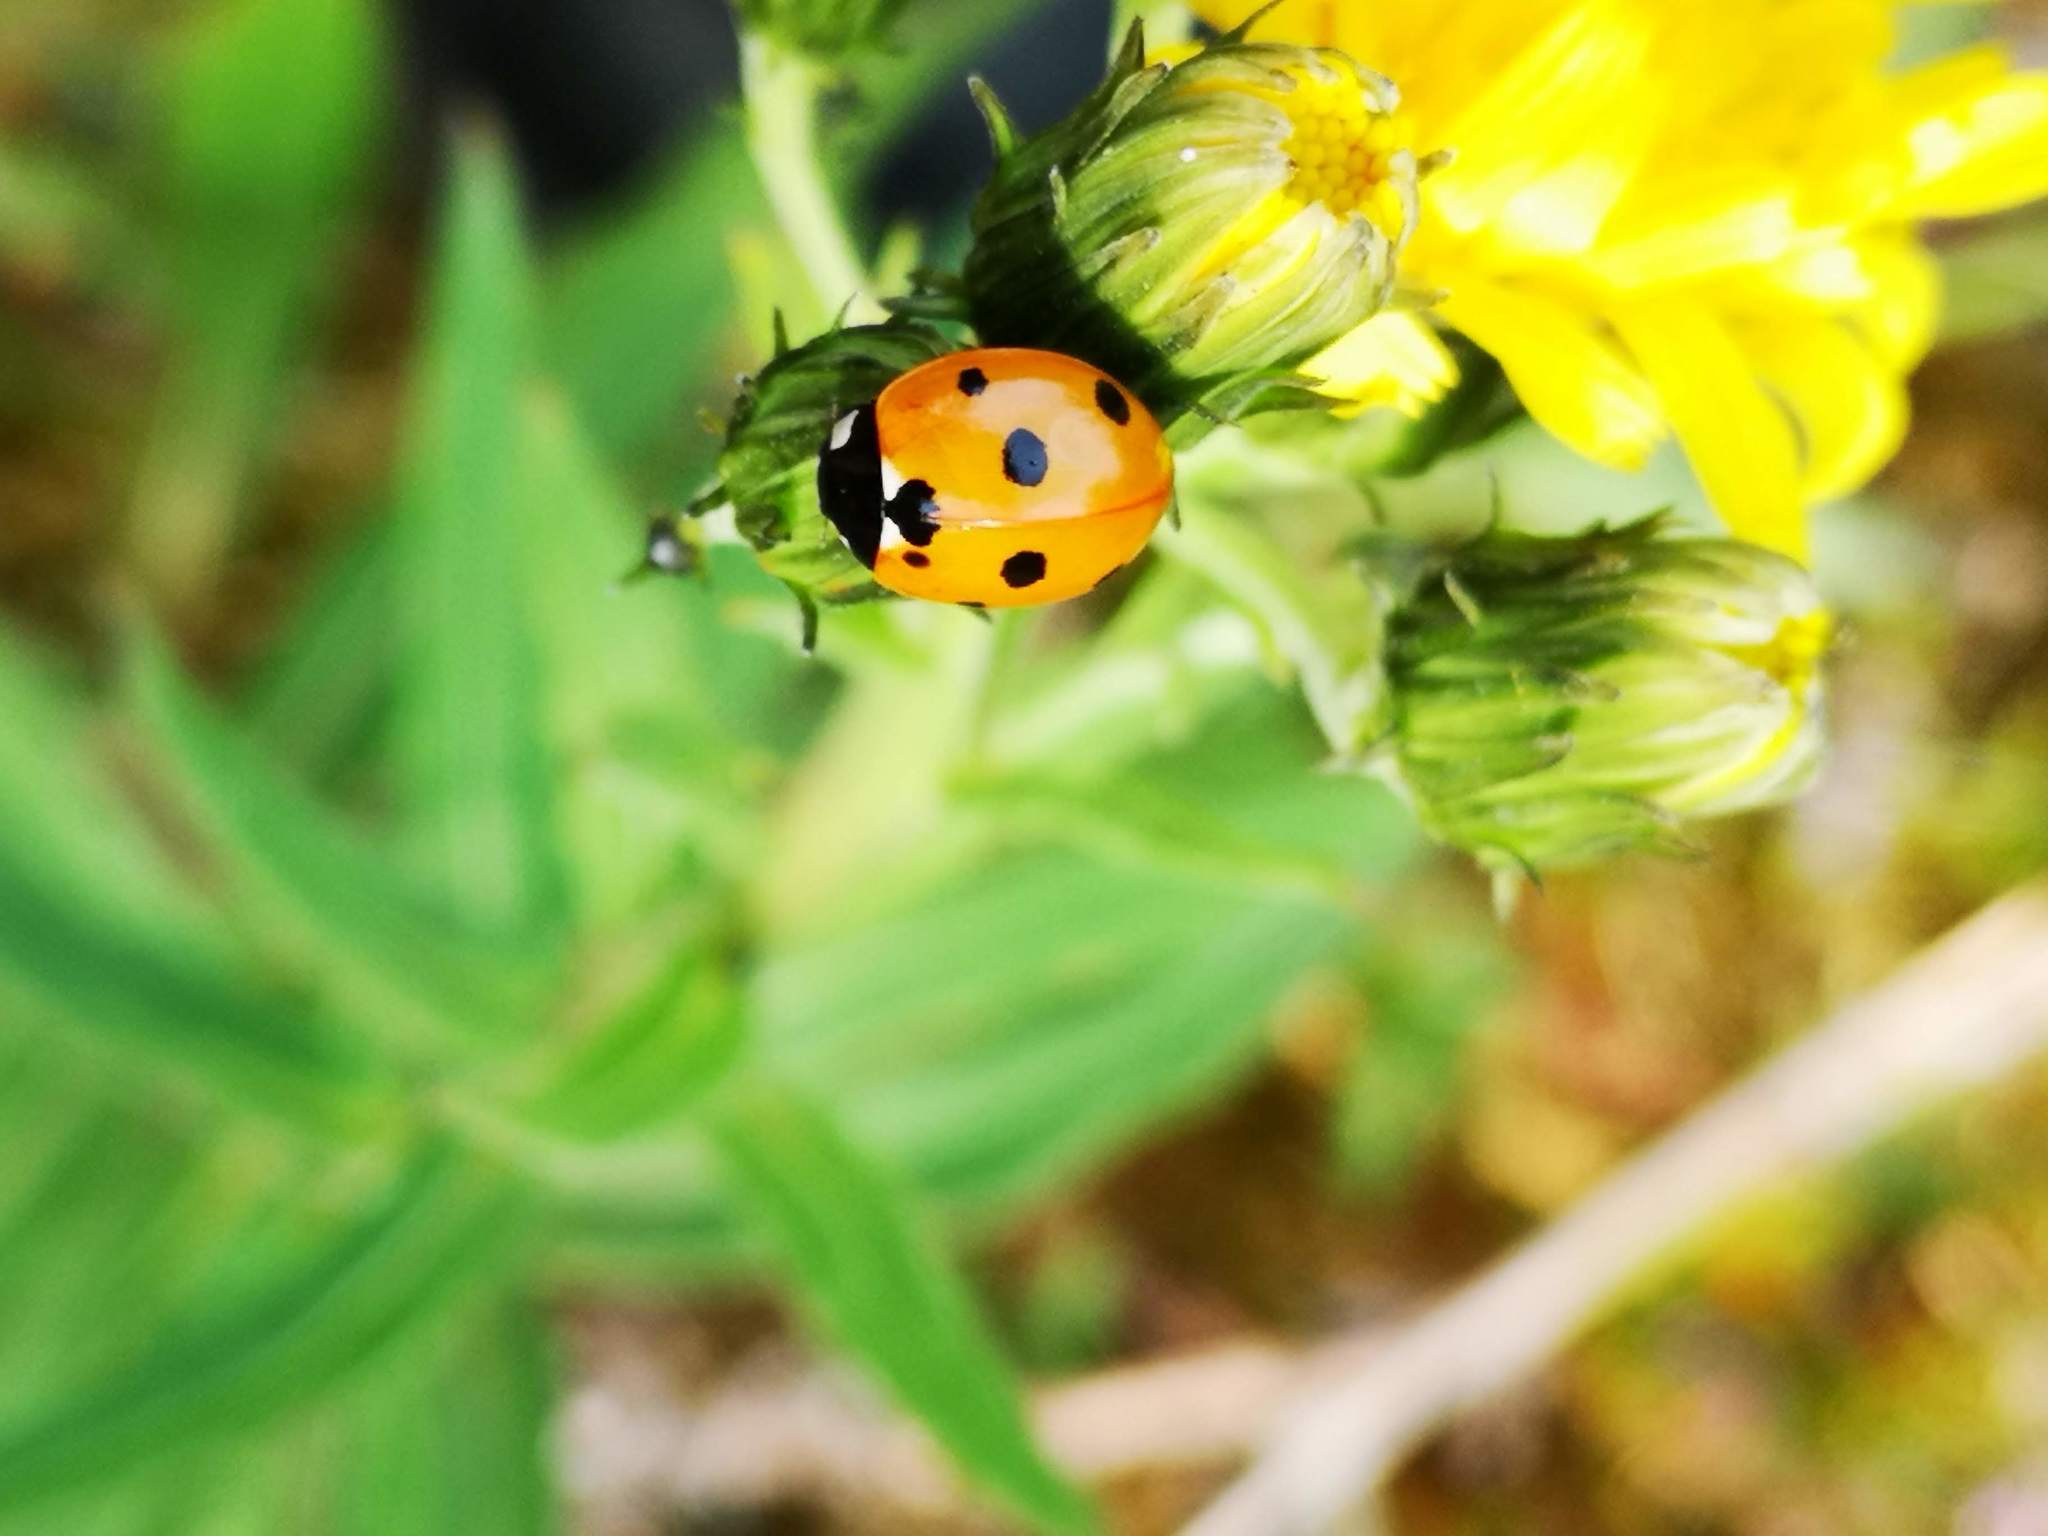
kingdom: Animalia
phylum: Arthropoda
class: Insecta
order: Coleoptera
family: Coccinellidae
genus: Coccinella
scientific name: Coccinella septempunctata
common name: Sevenspotted lady beetle
